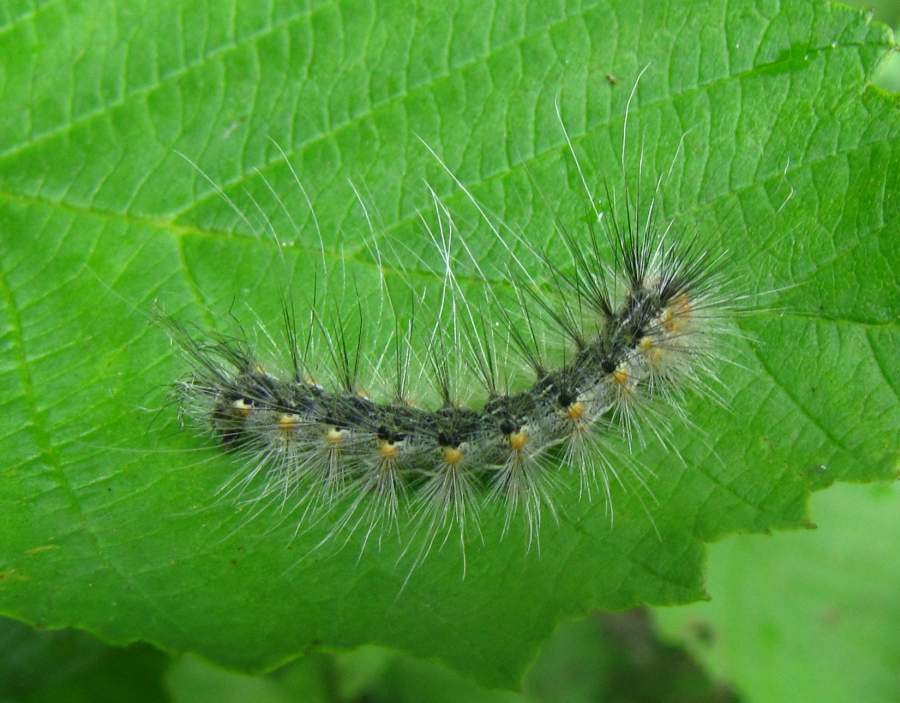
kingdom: Animalia
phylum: Arthropoda
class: Insecta
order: Lepidoptera
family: Erebidae
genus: Hyphantria
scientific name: Hyphantria cunea
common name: American white moth
